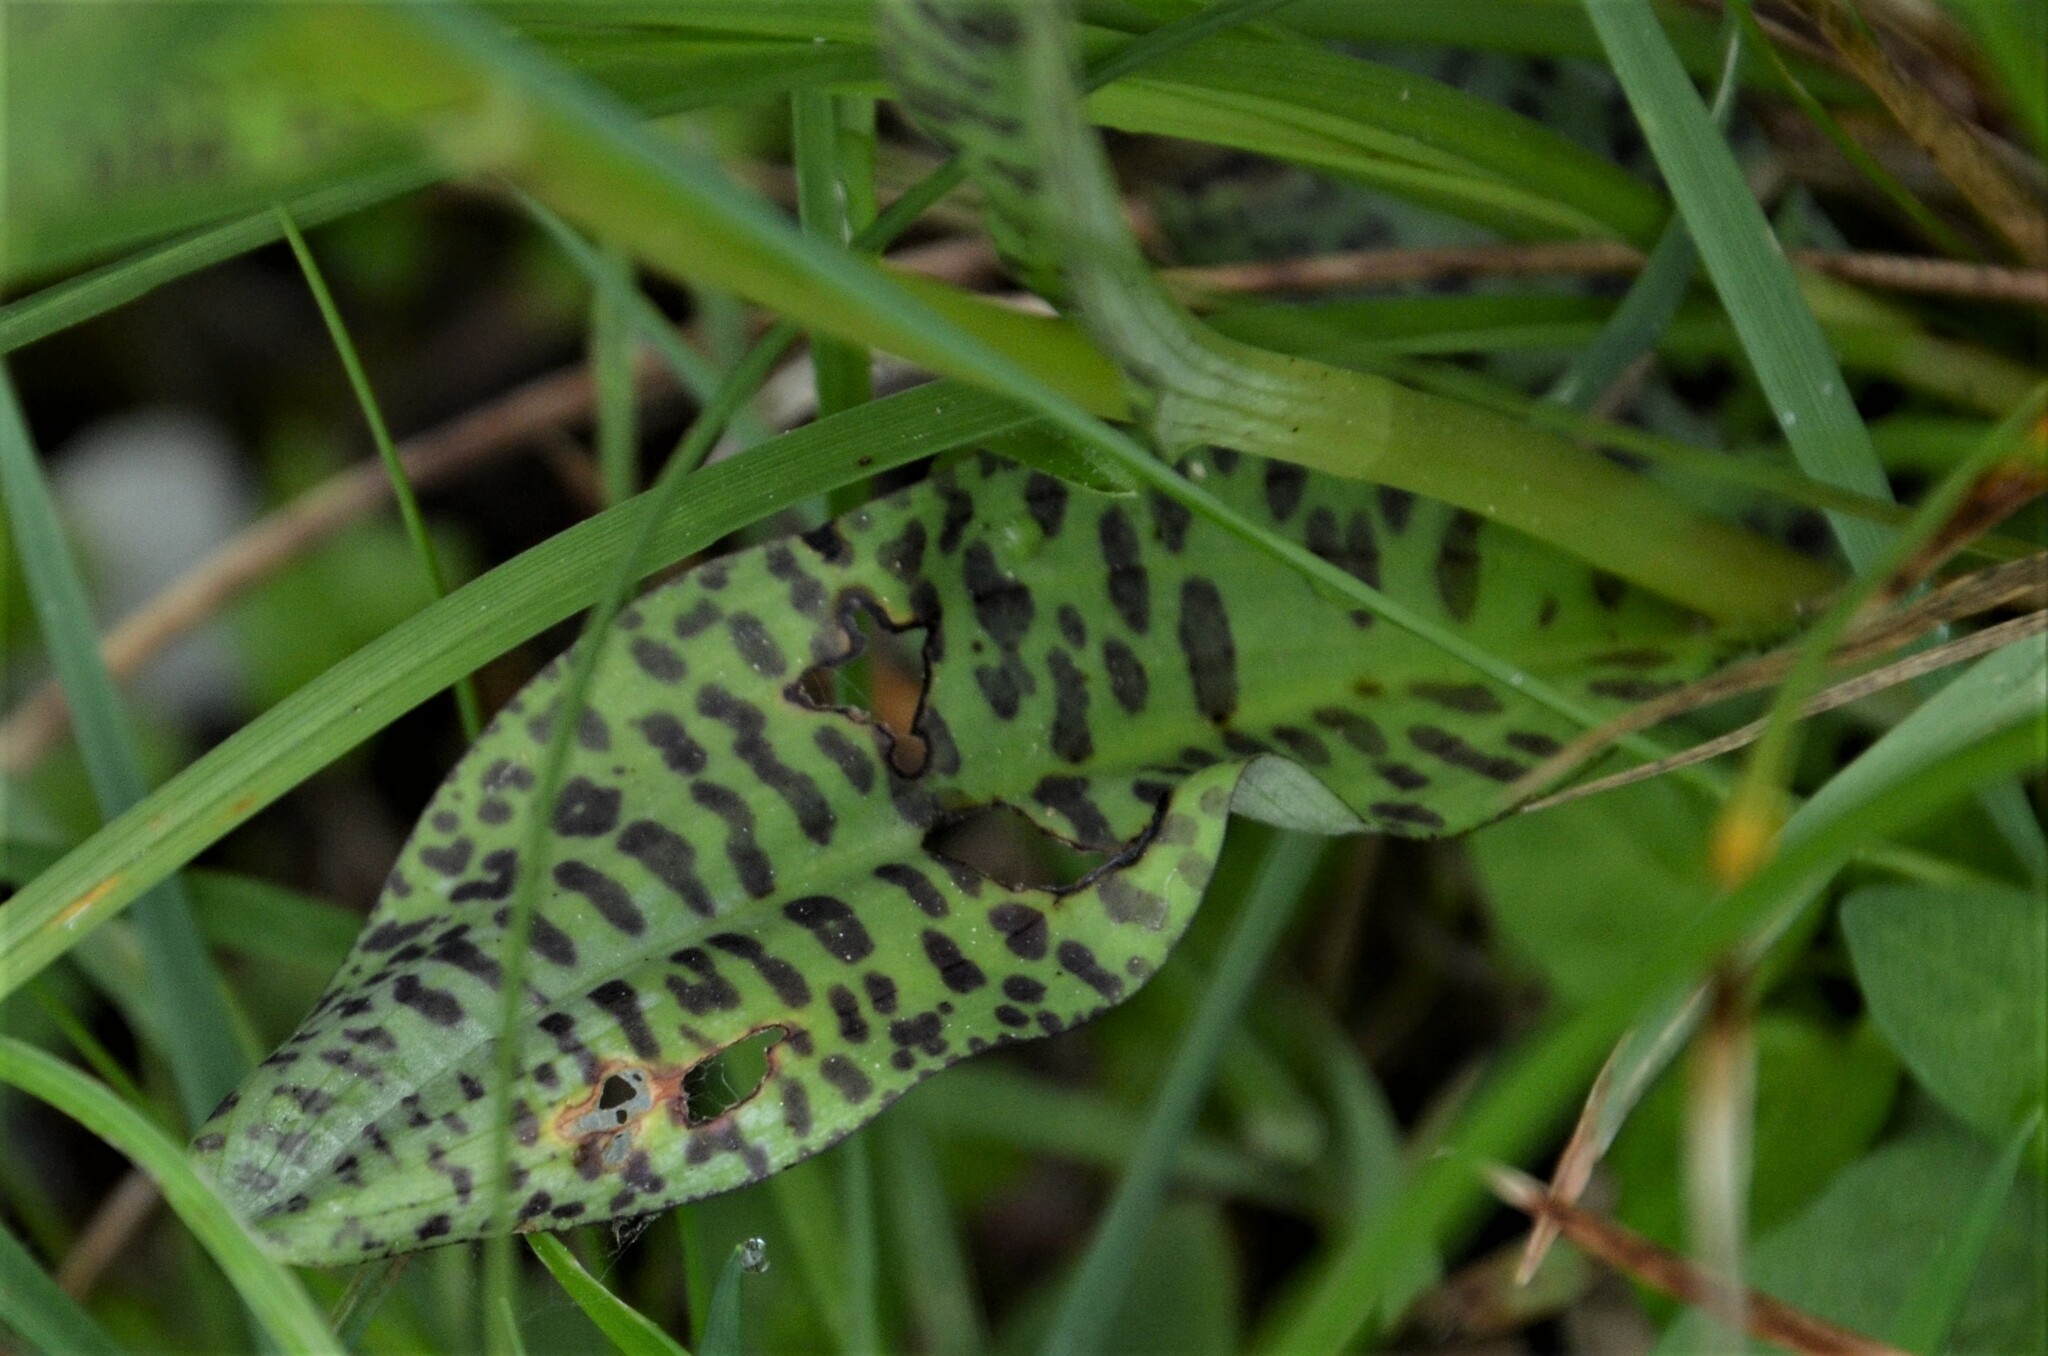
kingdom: Plantae
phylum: Tracheophyta
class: Liliopsida
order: Asparagales
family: Orchidaceae
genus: Dactylorhiza
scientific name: Dactylorhiza maculata
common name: Heath spotted-orchid
